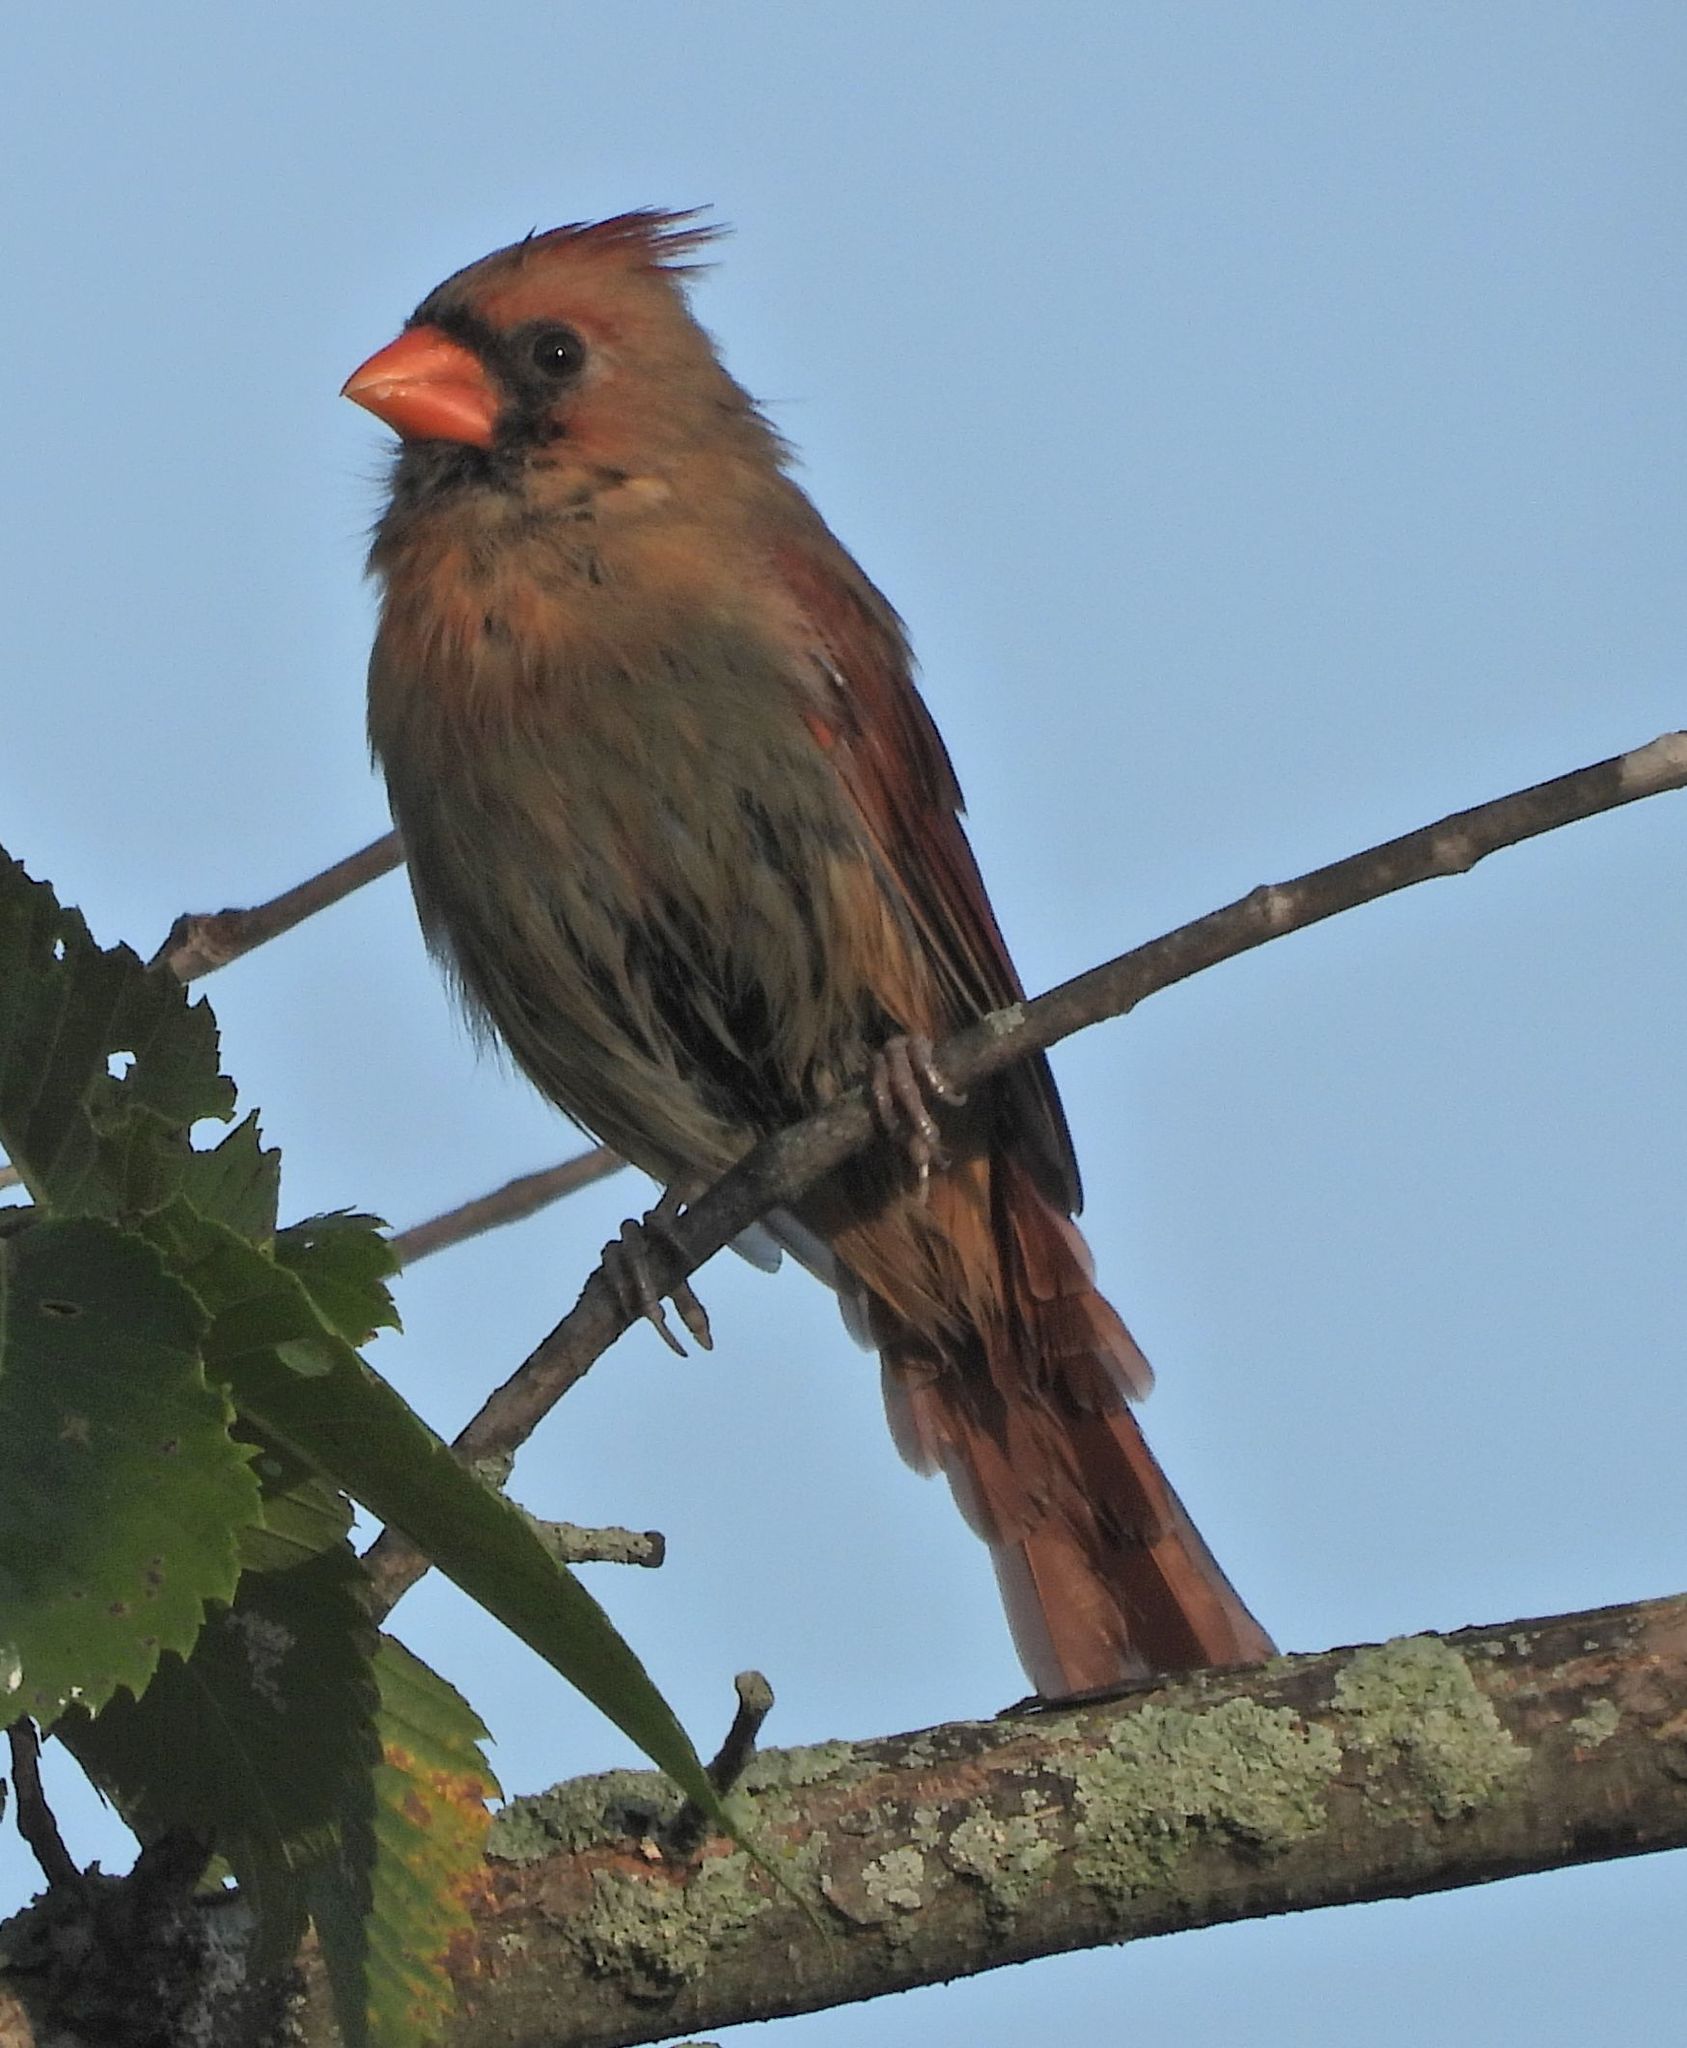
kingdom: Animalia
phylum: Chordata
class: Aves
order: Passeriformes
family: Cardinalidae
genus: Cardinalis
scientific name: Cardinalis cardinalis
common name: Northern cardinal
